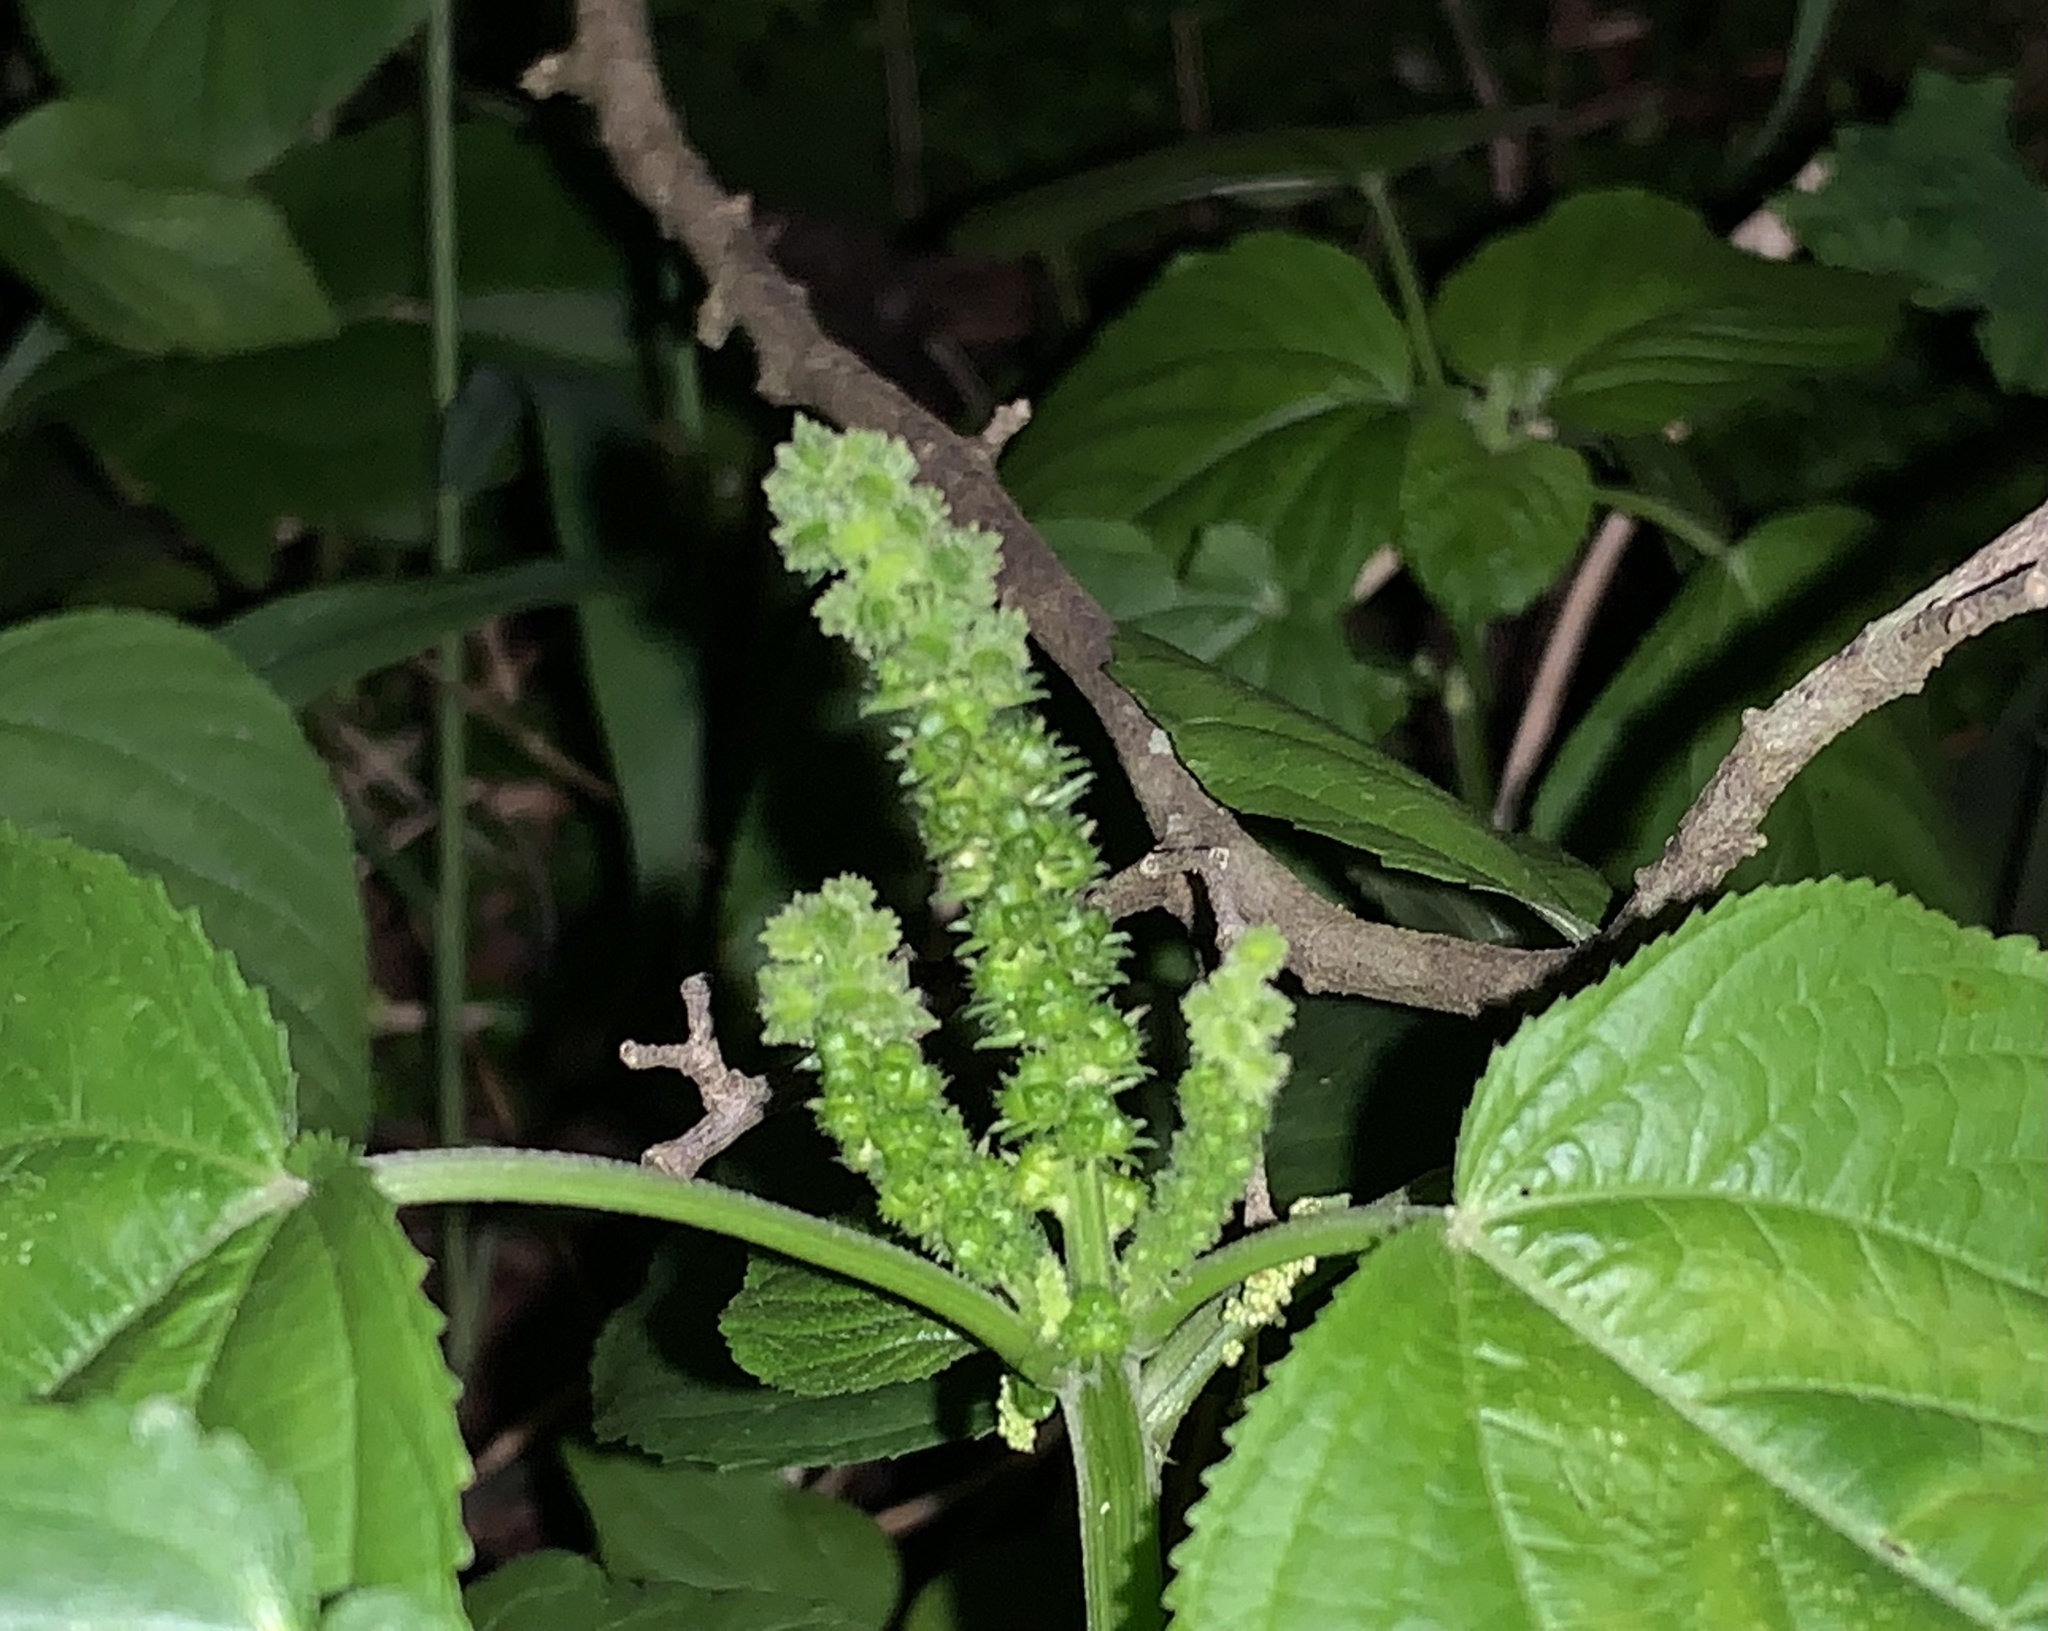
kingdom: Plantae
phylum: Tracheophyta
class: Magnoliopsida
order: Malpighiales
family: Euphorbiaceae
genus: Acalypha
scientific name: Acalypha setosa
